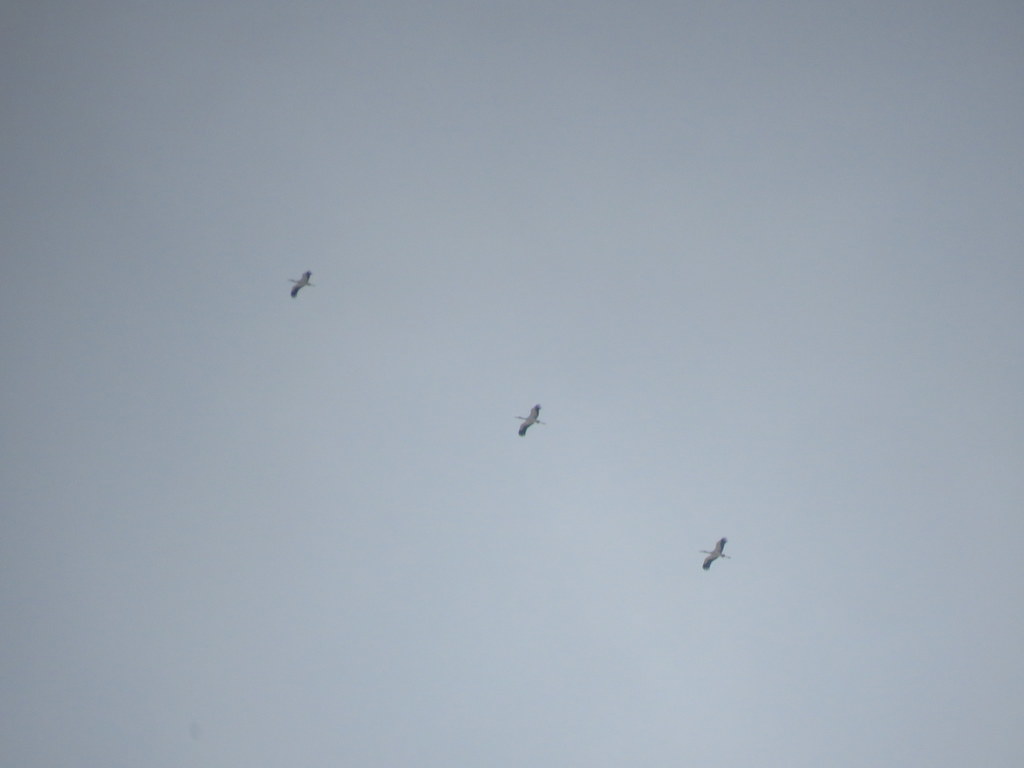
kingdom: Animalia
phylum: Chordata
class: Aves
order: Ciconiiformes
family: Ciconiidae
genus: Ciconia
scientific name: Ciconia maguari
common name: Maguari stork
